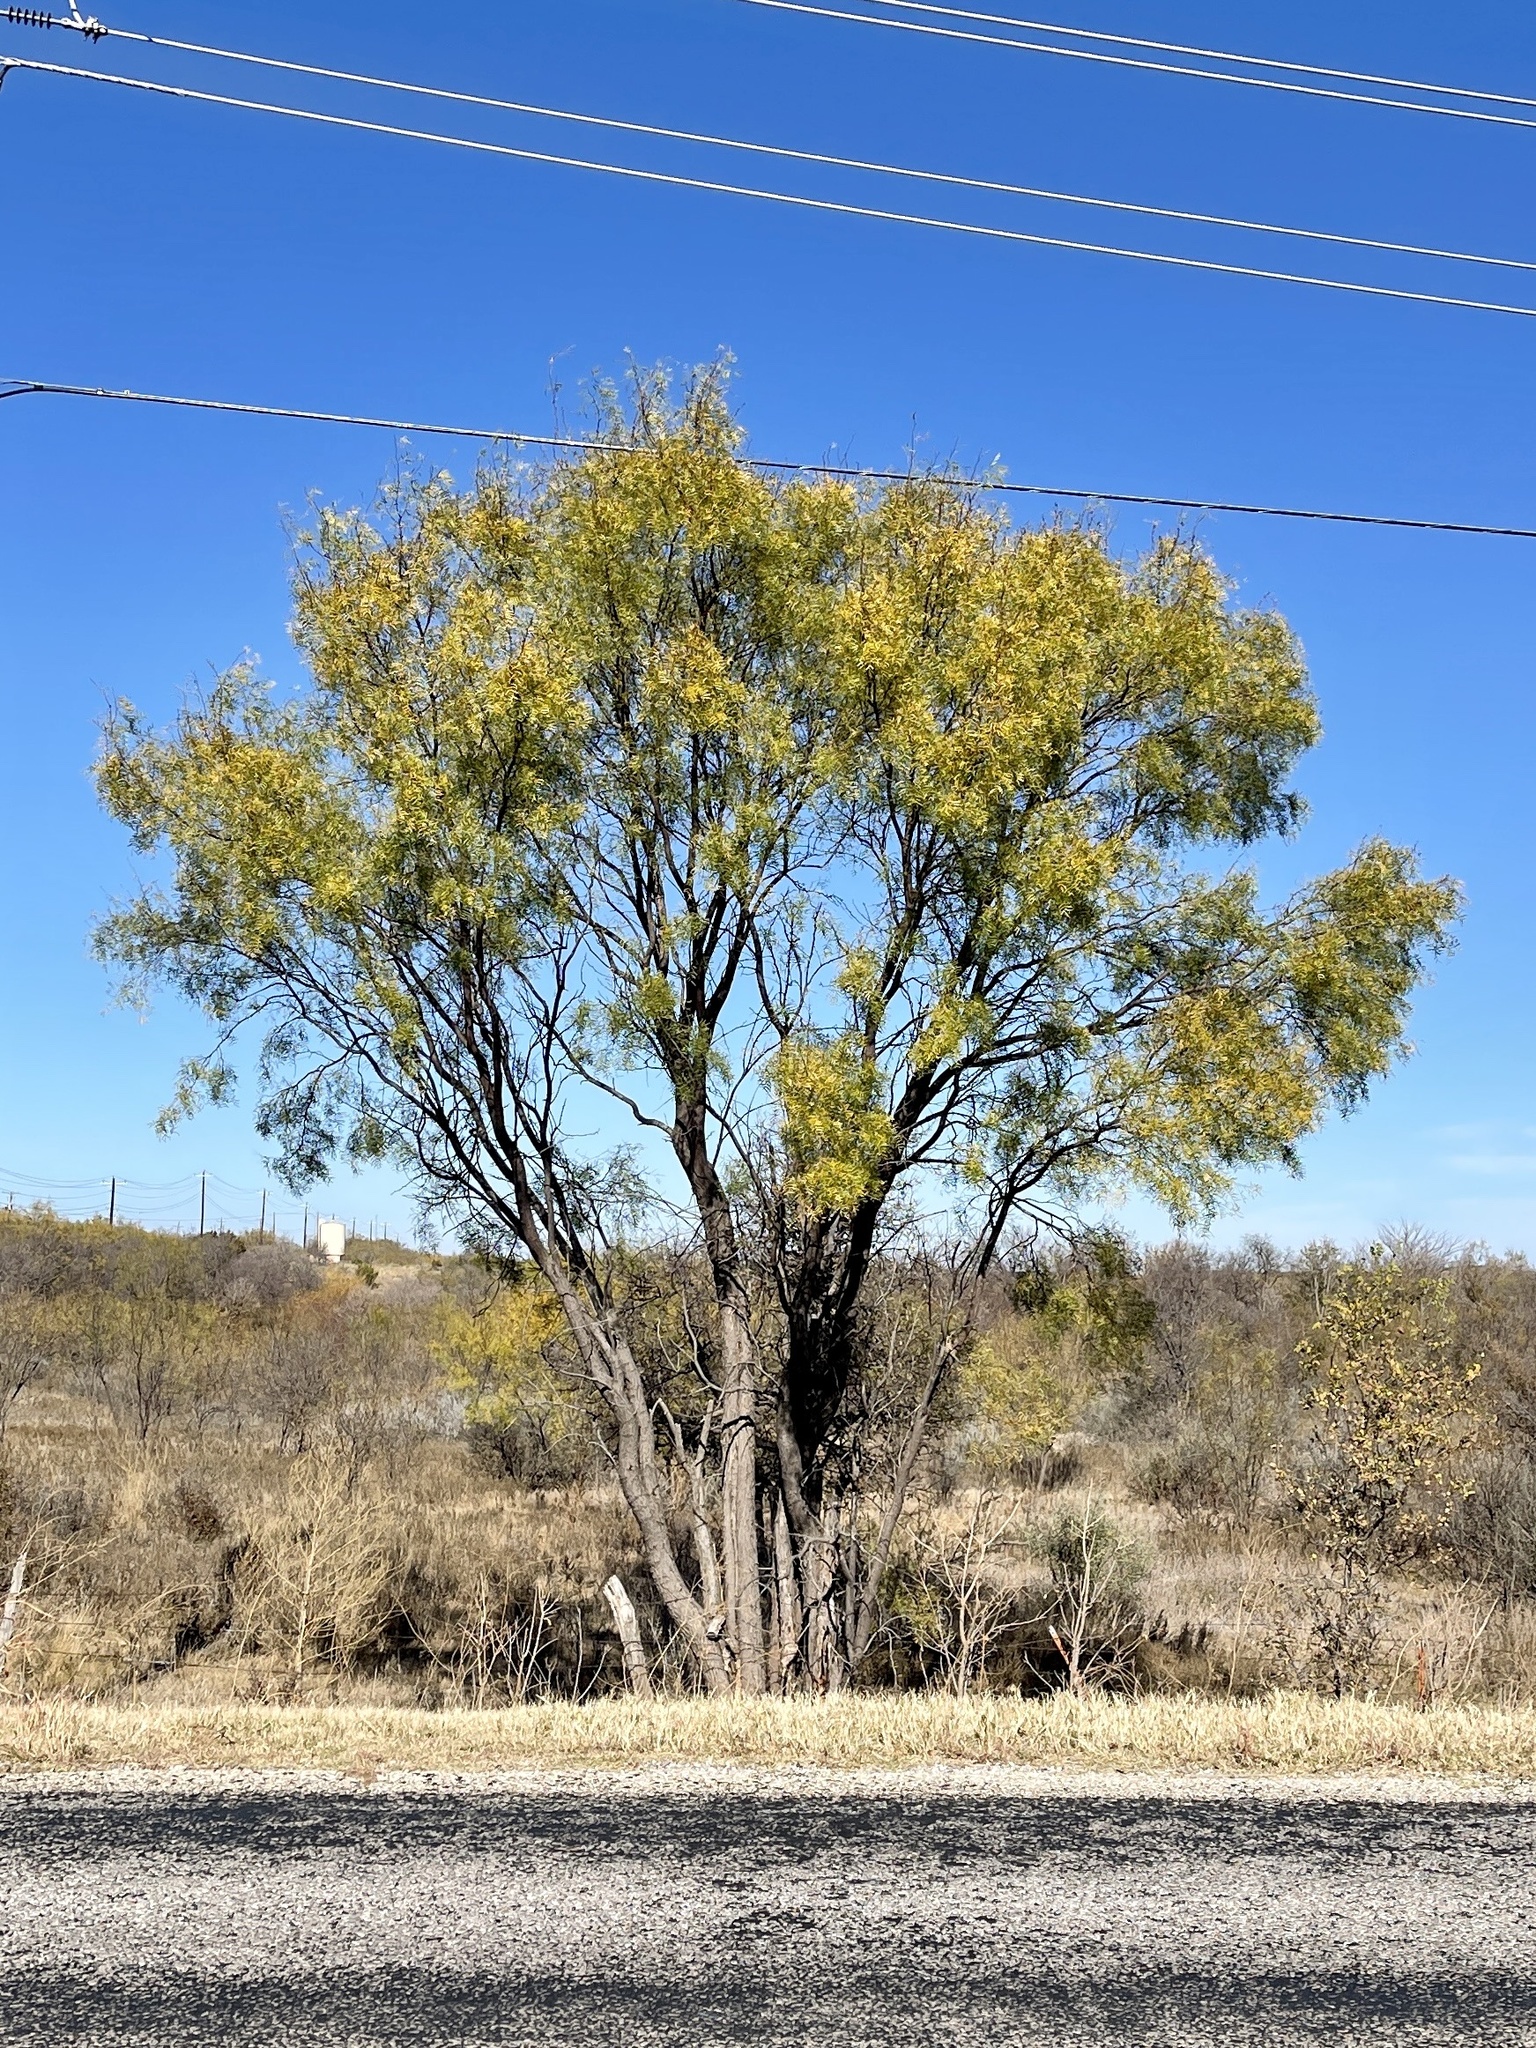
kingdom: Plantae
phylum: Tracheophyta
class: Magnoliopsida
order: Fabales
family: Fabaceae
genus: Prosopis
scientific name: Prosopis glandulosa
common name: Honey mesquite
